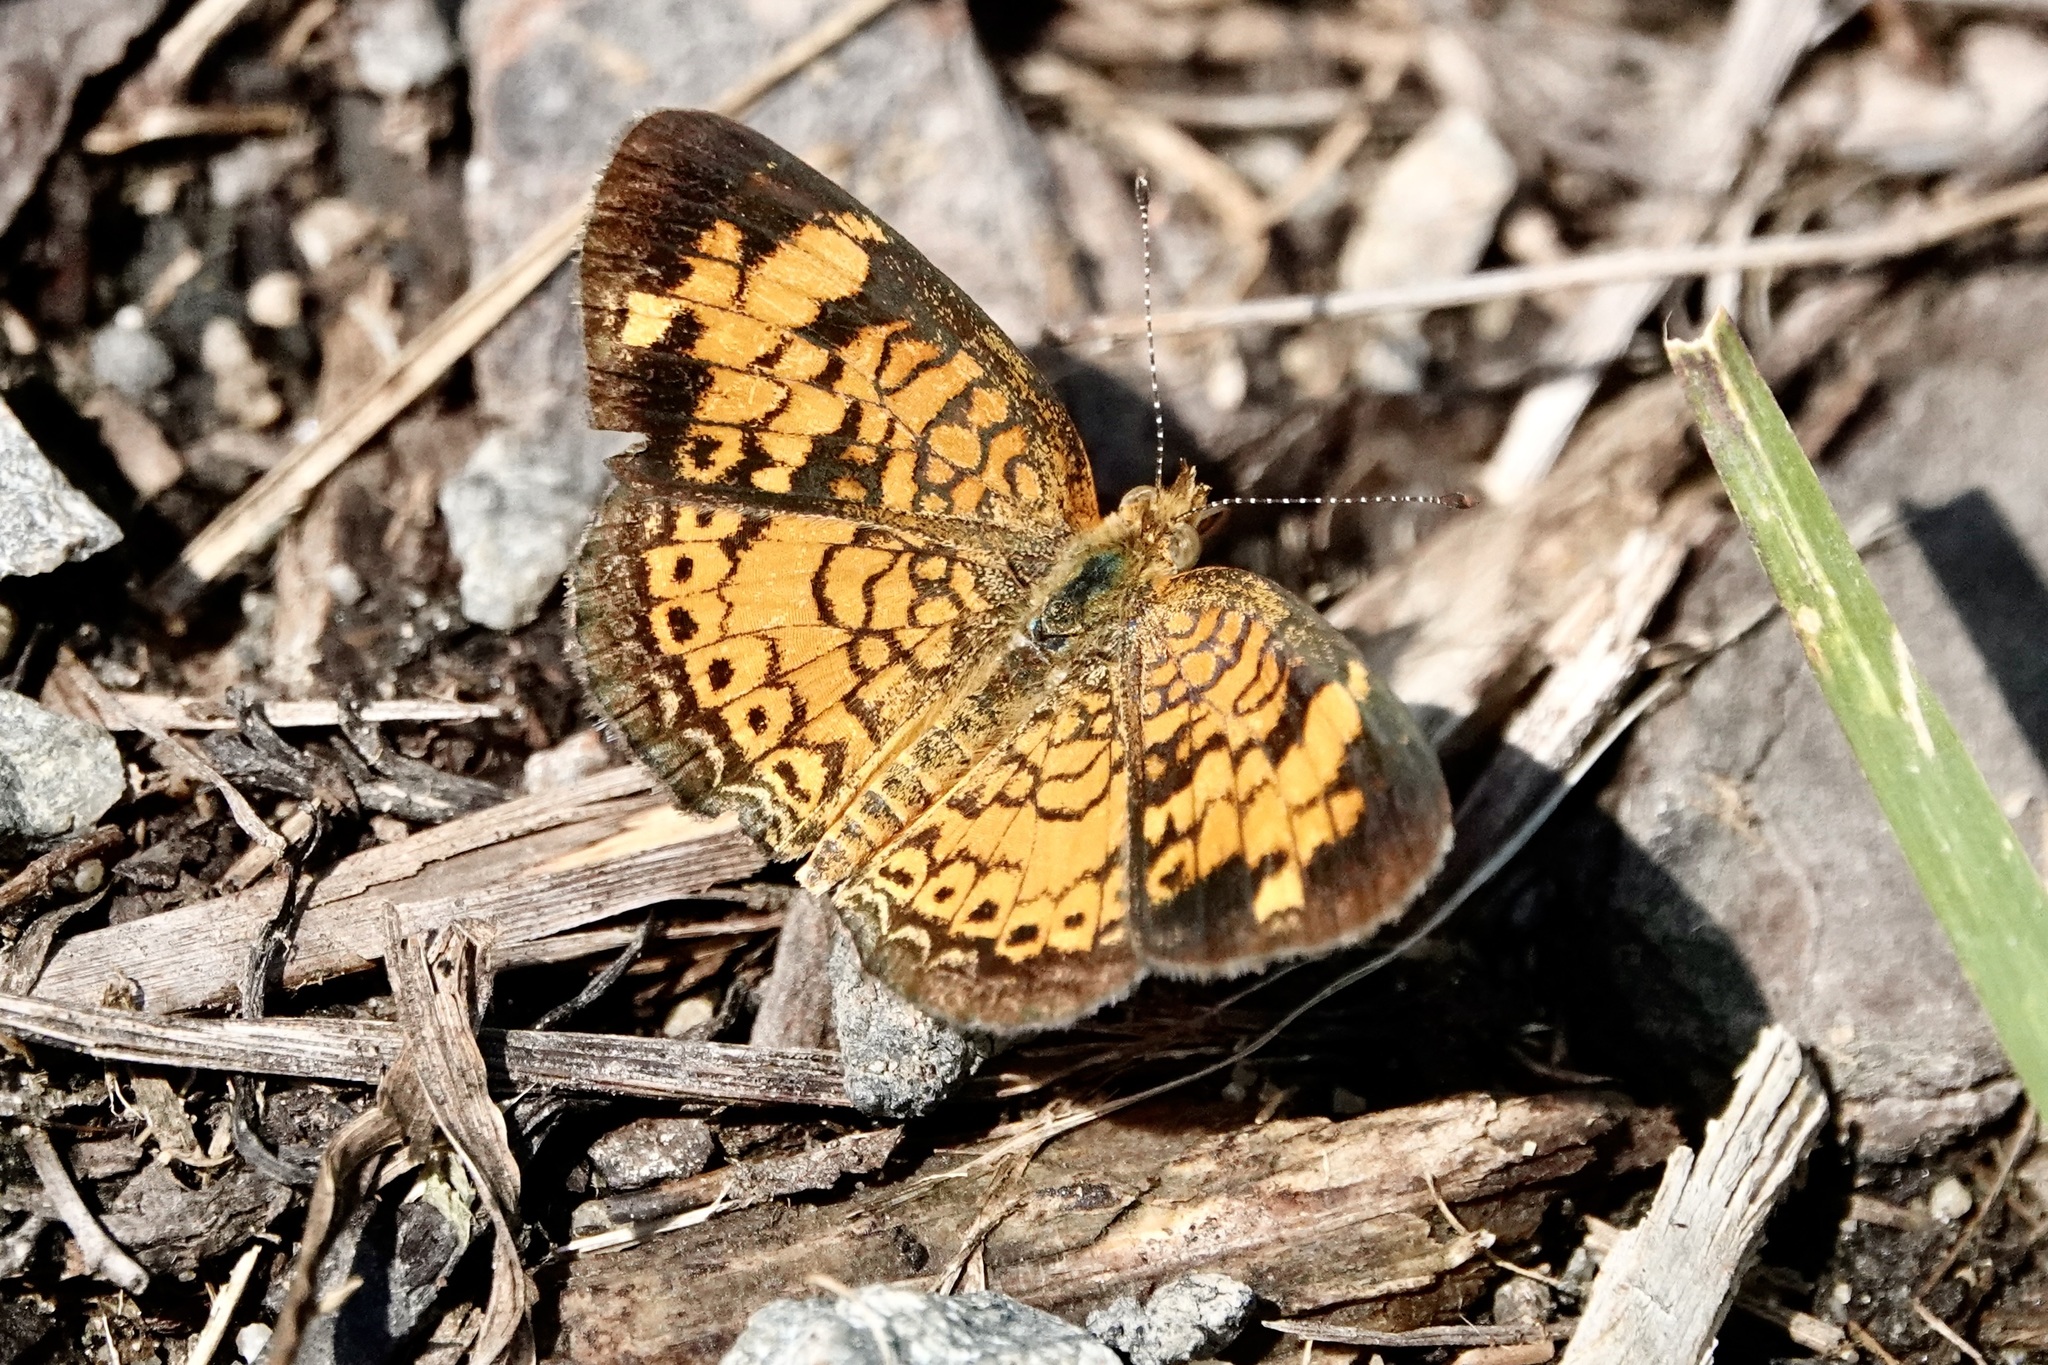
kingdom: Animalia
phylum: Arthropoda
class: Insecta
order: Lepidoptera
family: Nymphalidae
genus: Phyciodes
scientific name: Phyciodes tharos
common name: Pearl crescent
